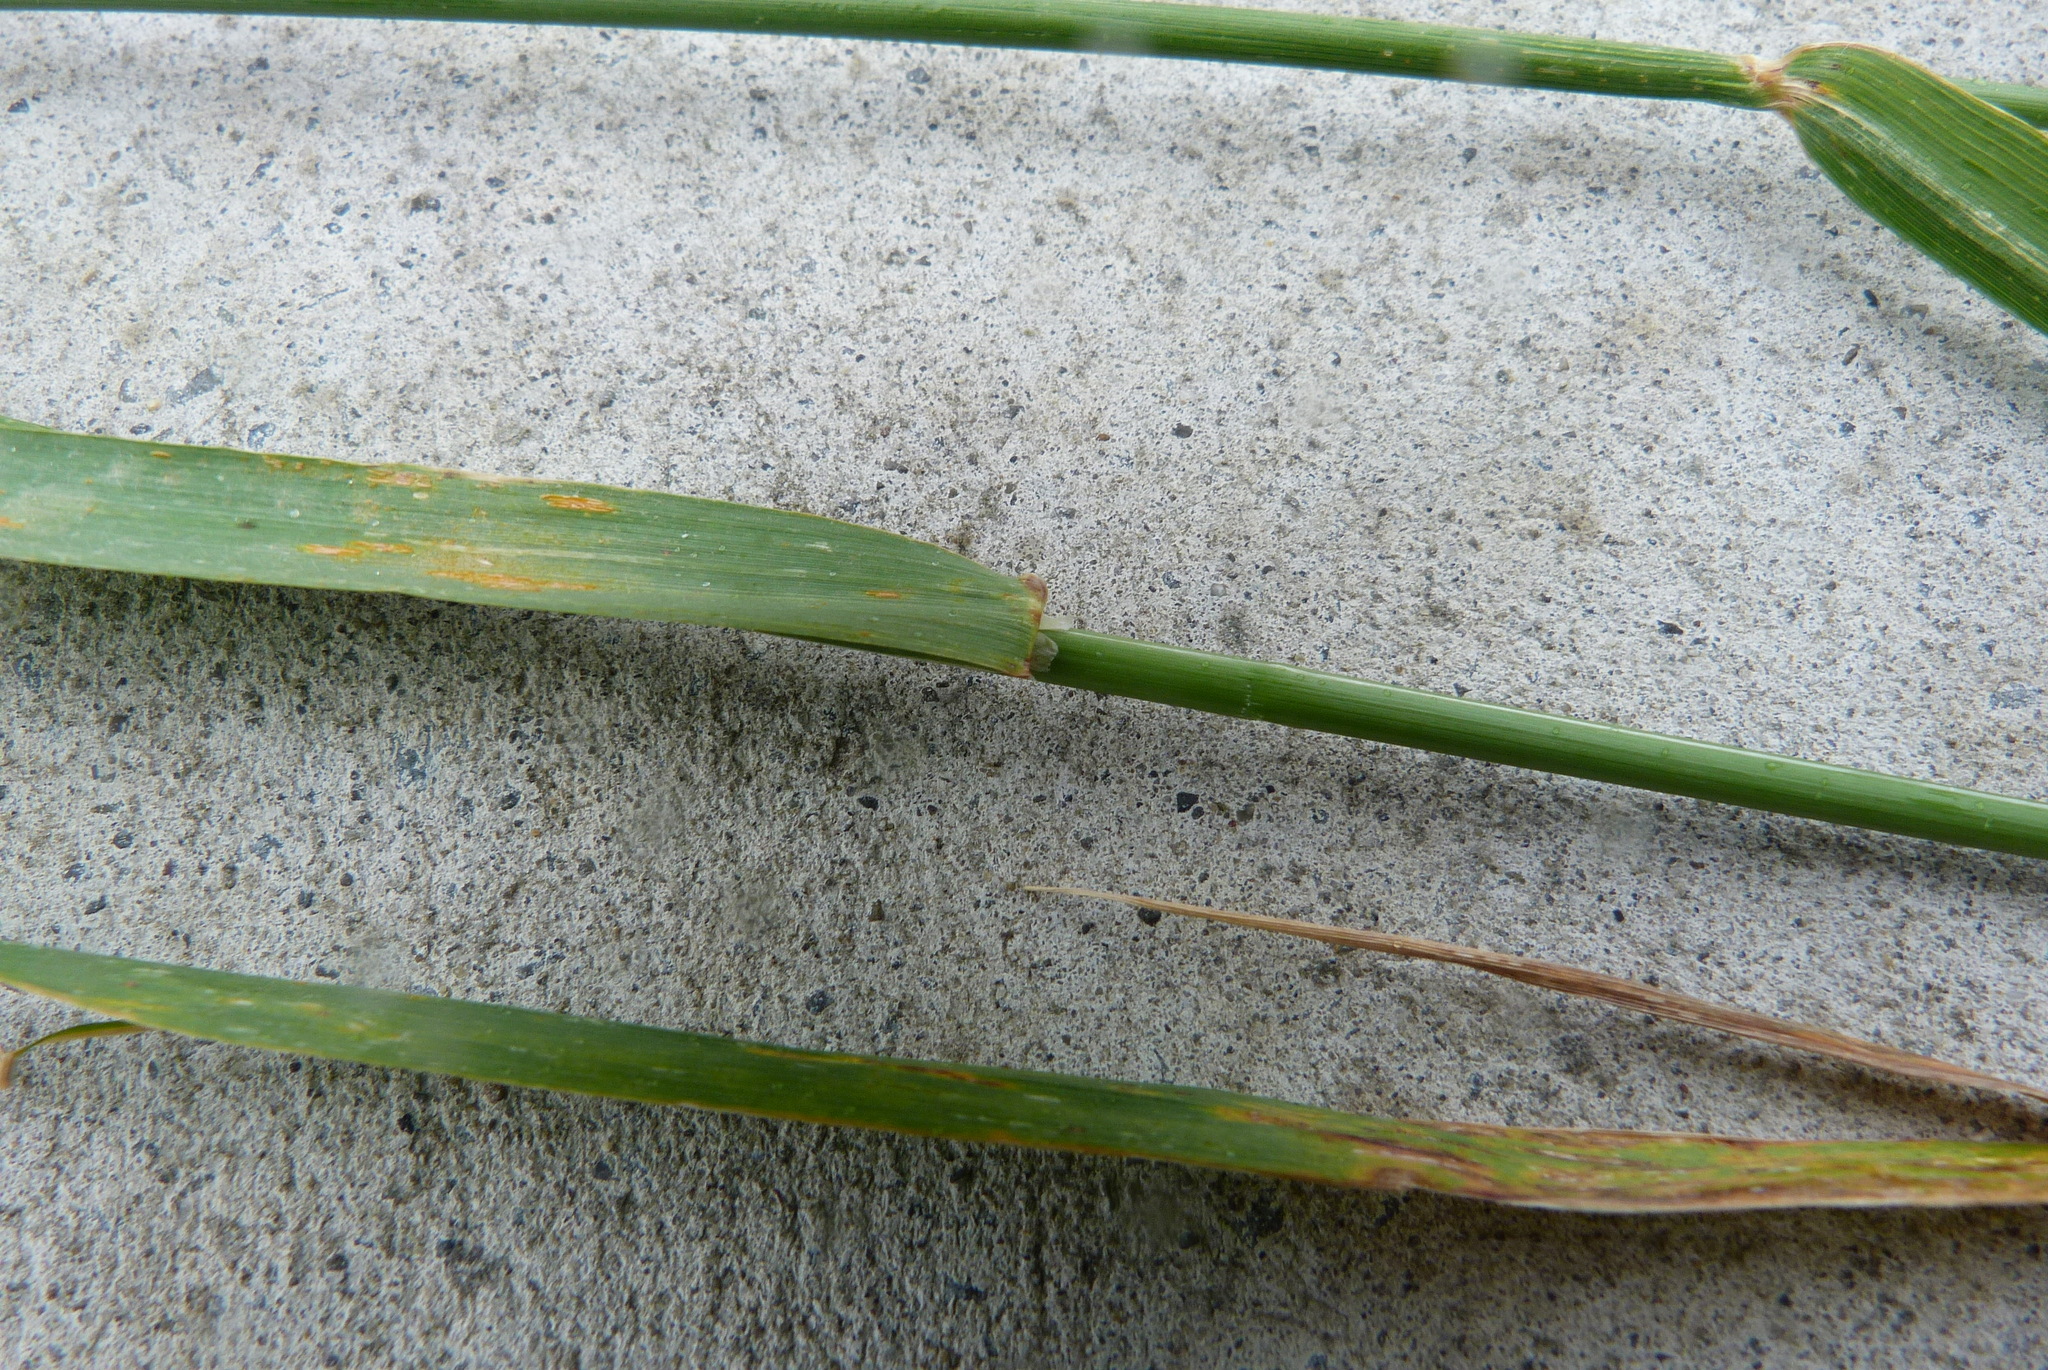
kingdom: Plantae
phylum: Tracheophyta
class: Liliopsida
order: Poales
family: Poaceae
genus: Arrhenatherum
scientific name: Arrhenatherum elatius
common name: Tall oatgrass
